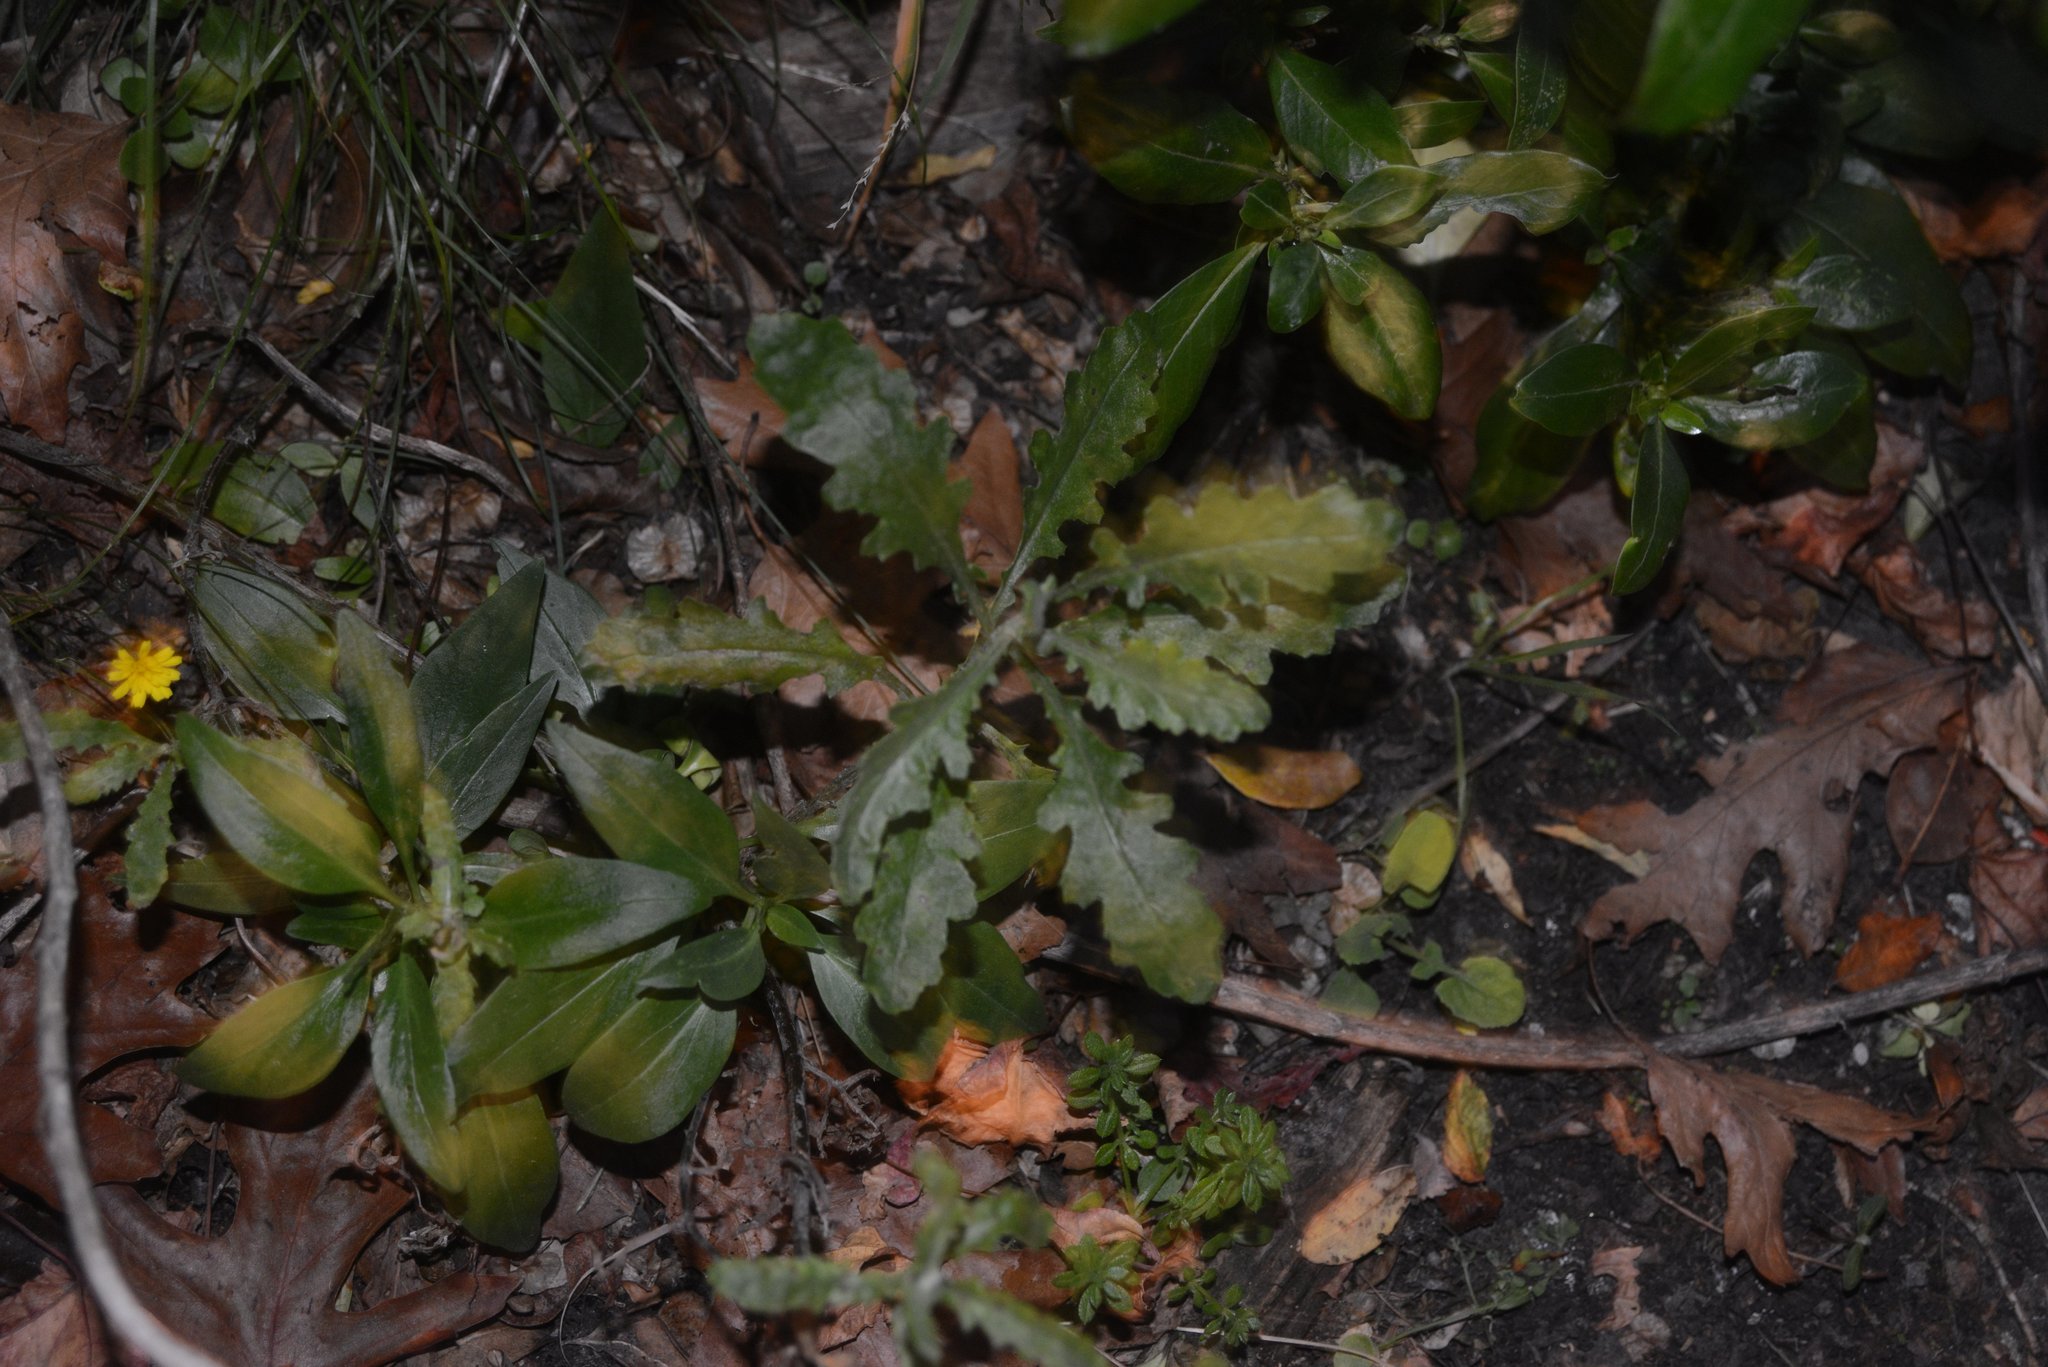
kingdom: Plantae
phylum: Tracheophyta
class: Magnoliopsida
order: Asterales
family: Asteraceae
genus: Senecio
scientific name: Senecio glomeratus
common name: Cutleaf burnweed
